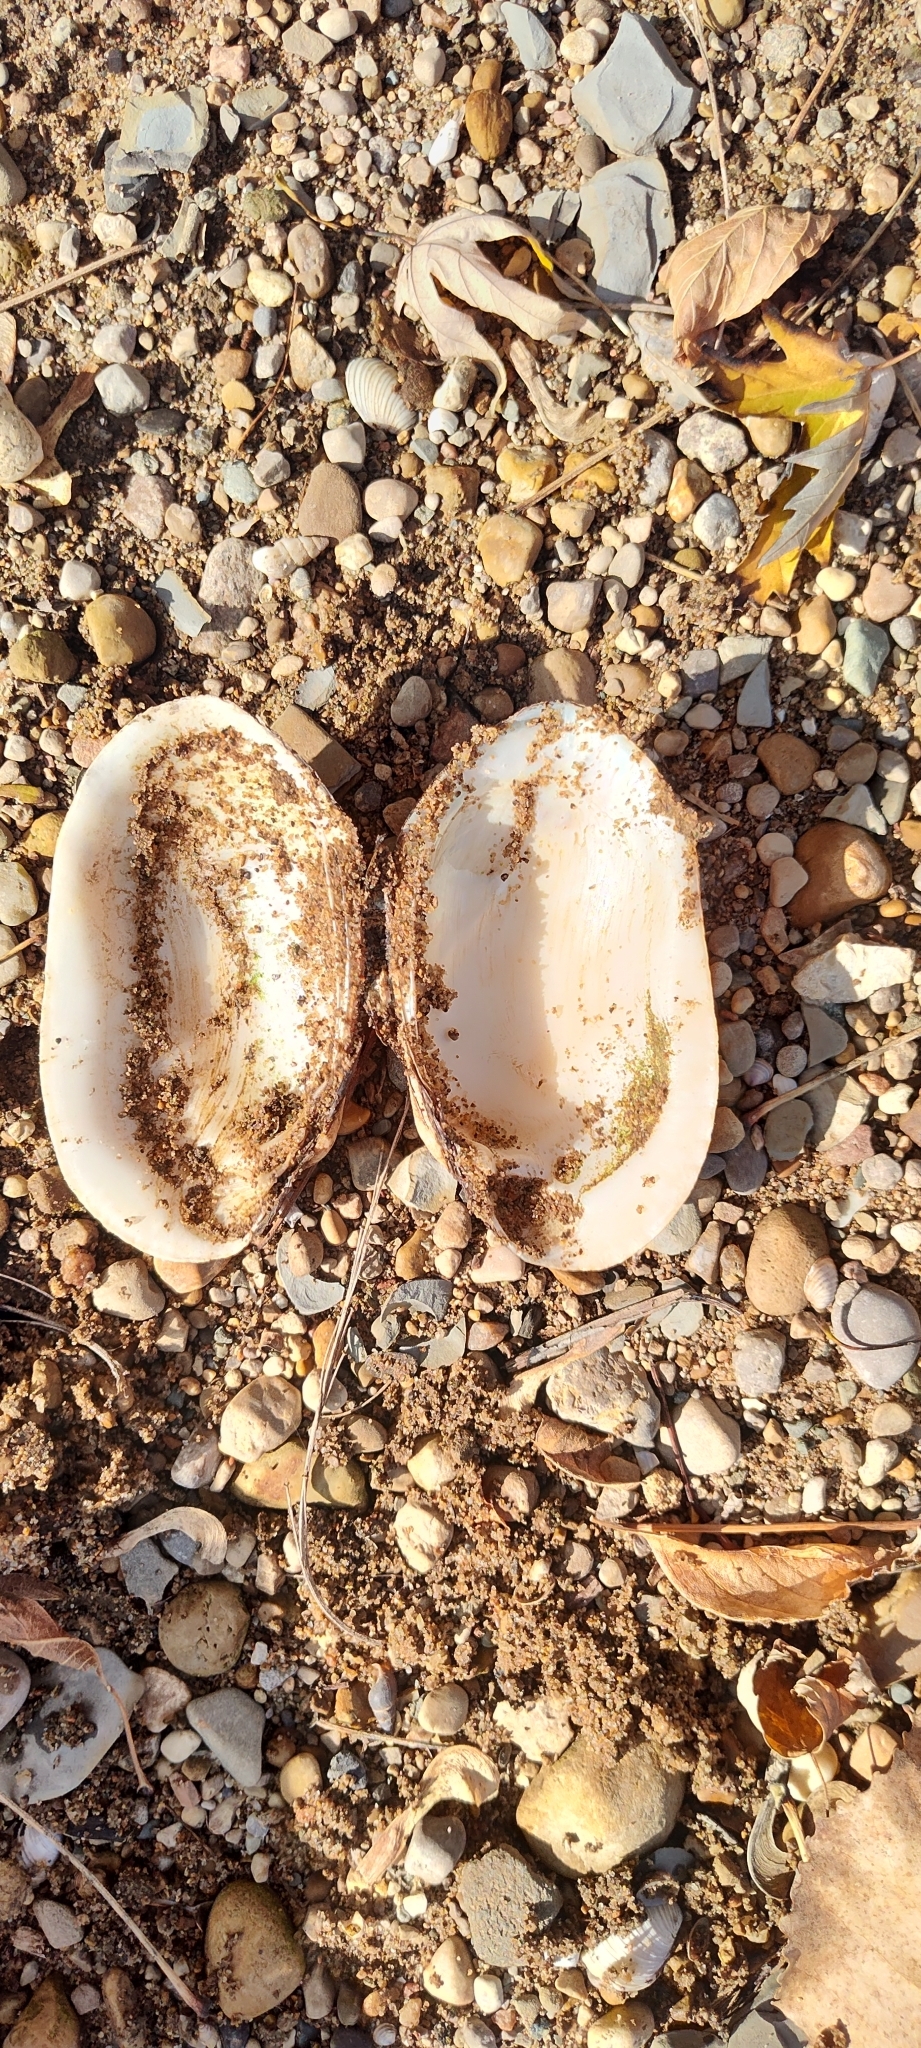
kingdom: Animalia
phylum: Mollusca
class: Bivalvia
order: Unionida
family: Unionidae
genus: Lampsilis
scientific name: Lampsilis siliquoidea
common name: Fatmucket
